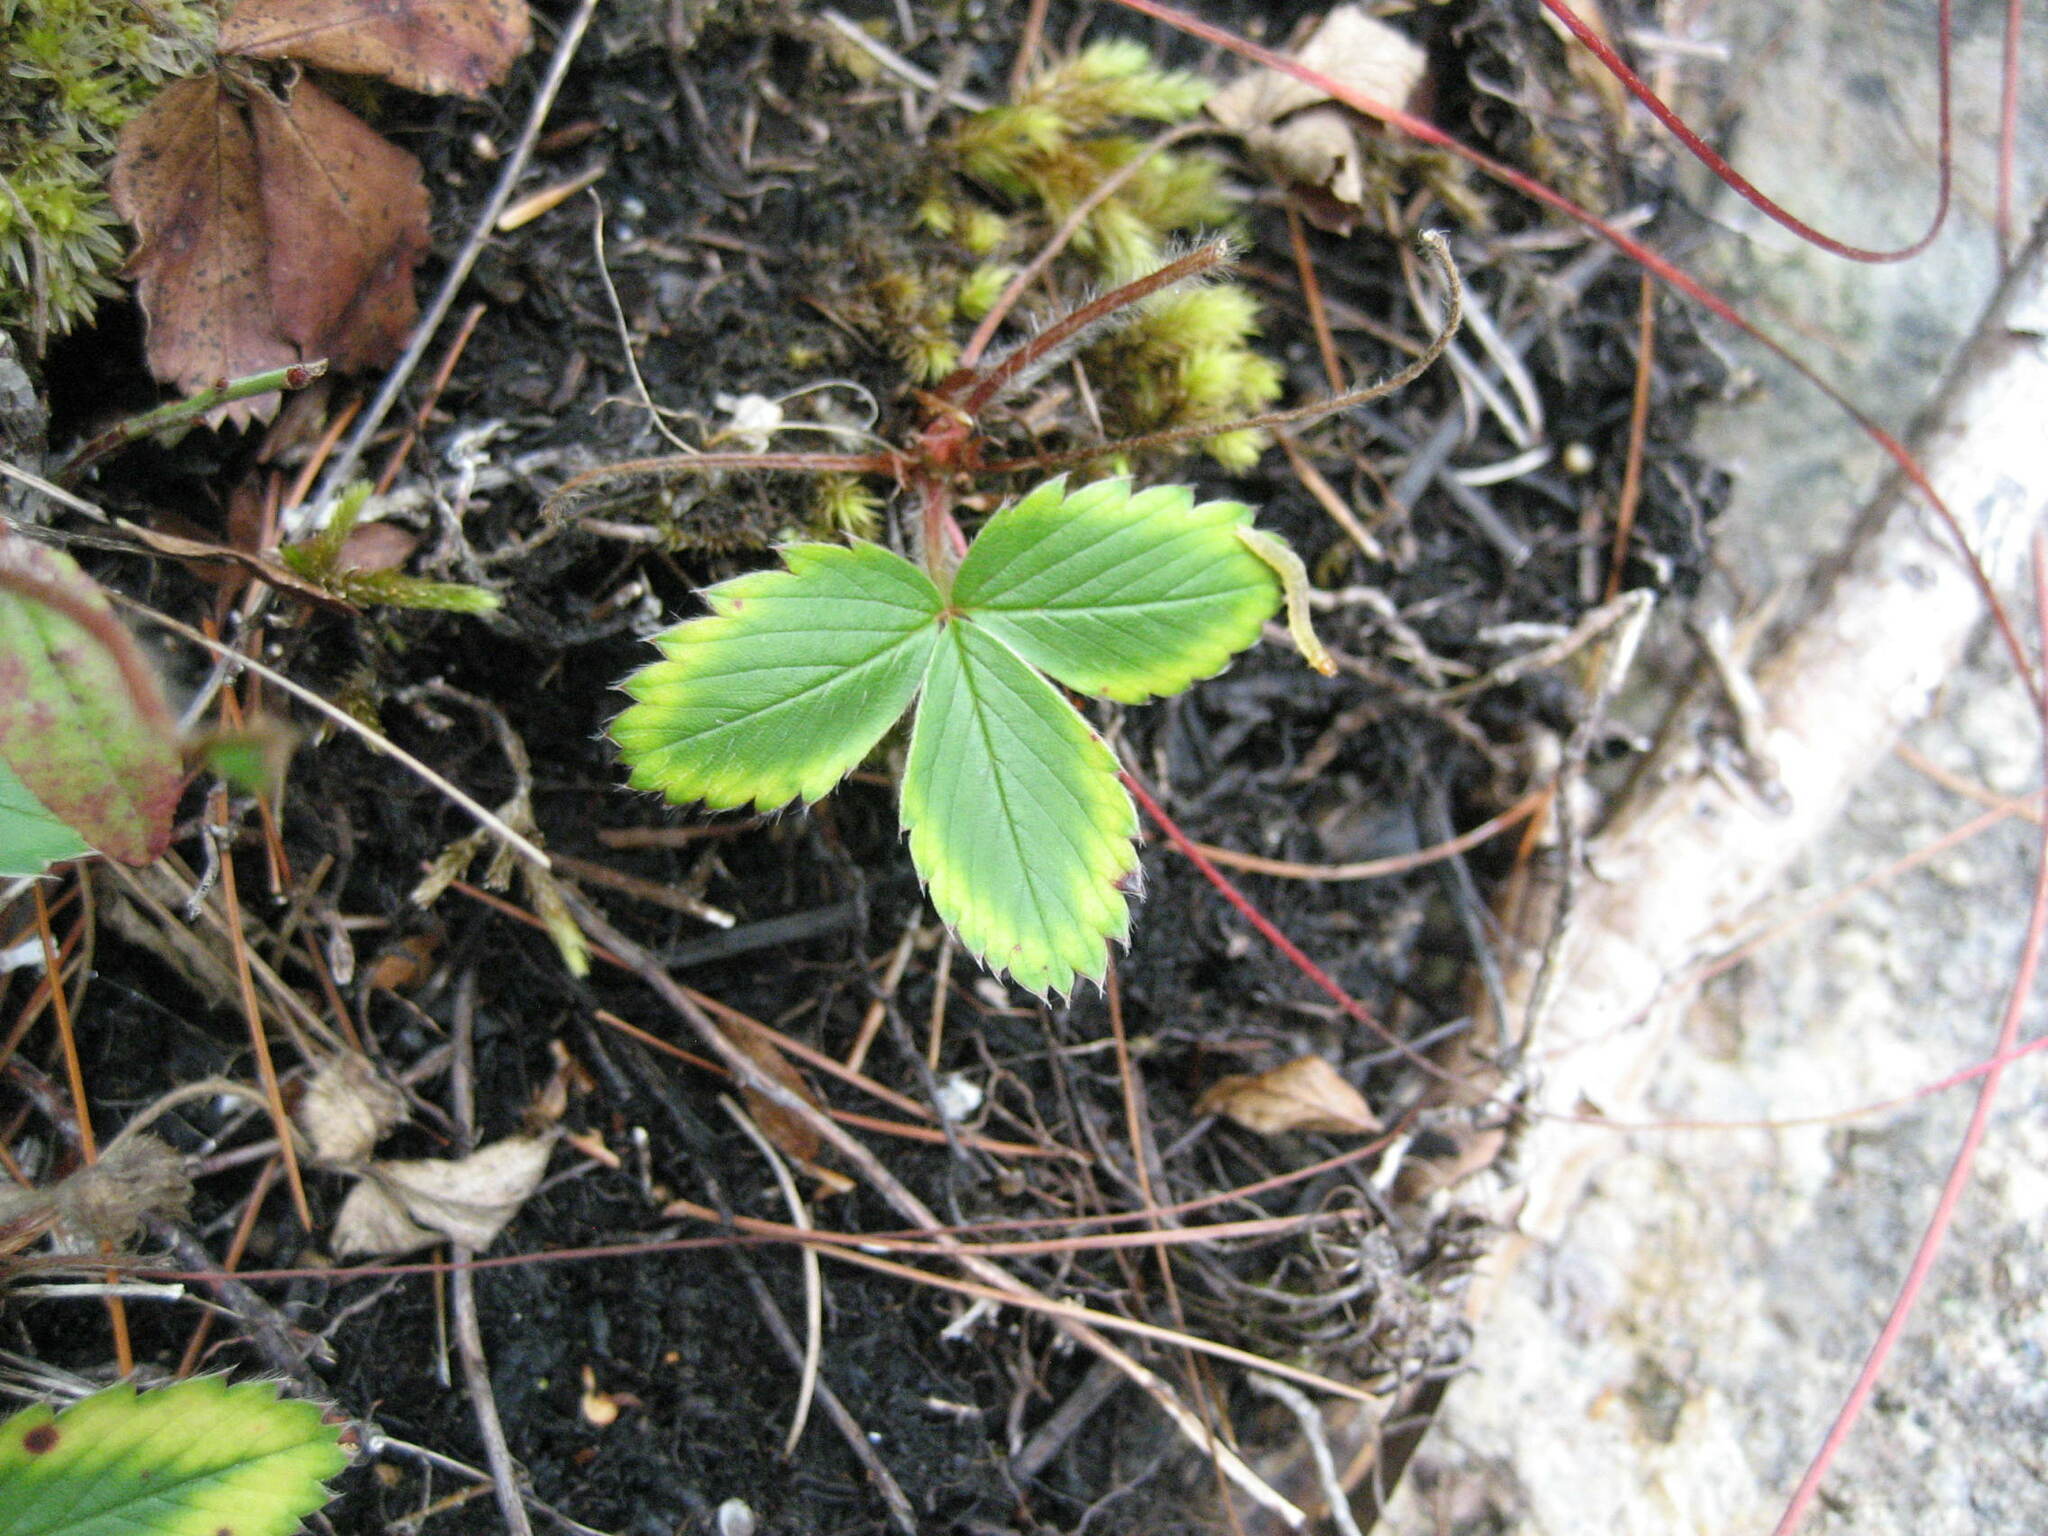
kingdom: Plantae
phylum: Tracheophyta
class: Magnoliopsida
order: Rosales
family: Rosaceae
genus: Fragaria
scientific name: Fragaria virginiana
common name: Thickleaved wild strawberry
